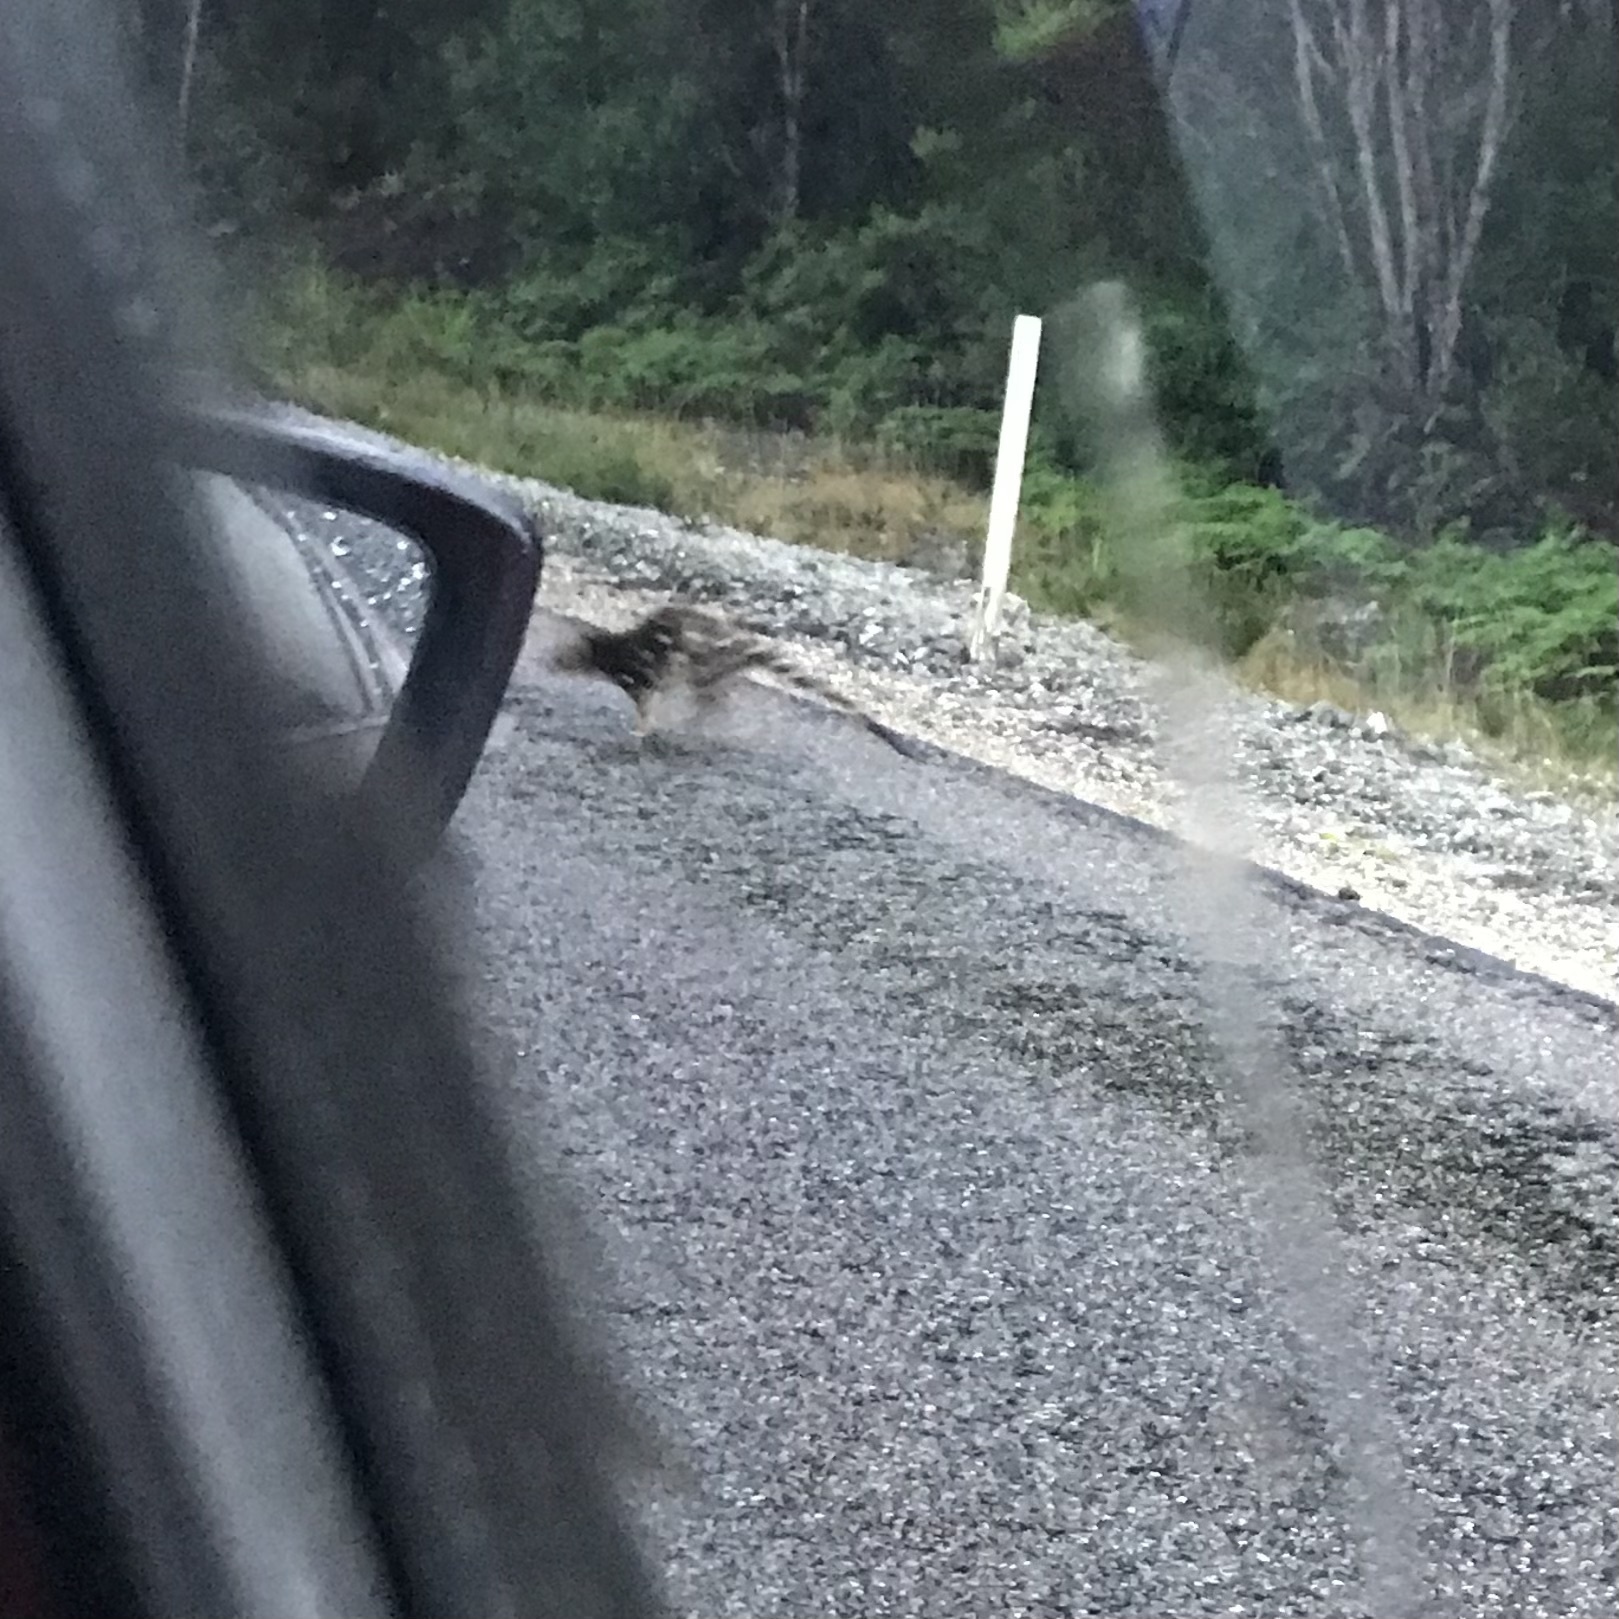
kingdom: Animalia
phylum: Chordata
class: Mammalia
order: Dasyuromorphia
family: Dasyuridae
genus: Dasyurus
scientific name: Dasyurus maculatus
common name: Tiger quoll
